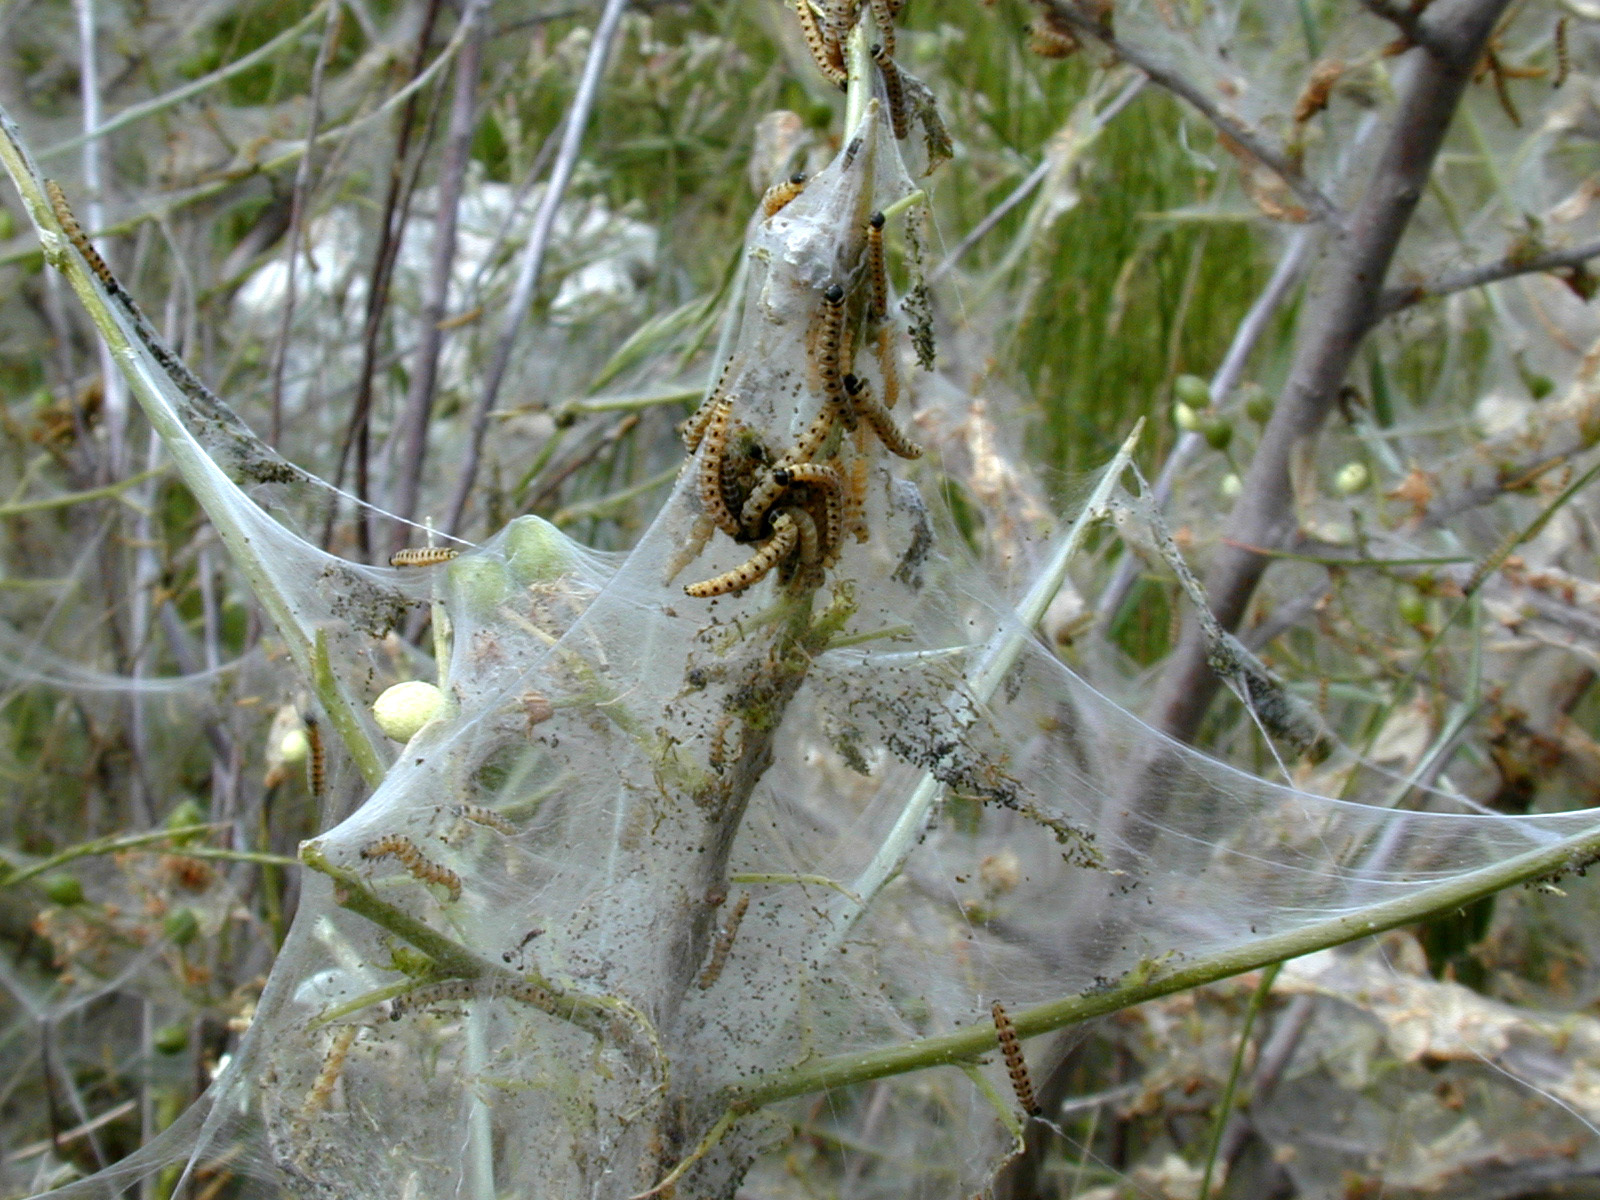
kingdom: Animalia
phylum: Arthropoda
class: Insecta
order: Lepidoptera
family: Yponomeutidae
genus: Yponomeuta
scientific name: Yponomeuta cagnagellus
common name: Spindle ermine
